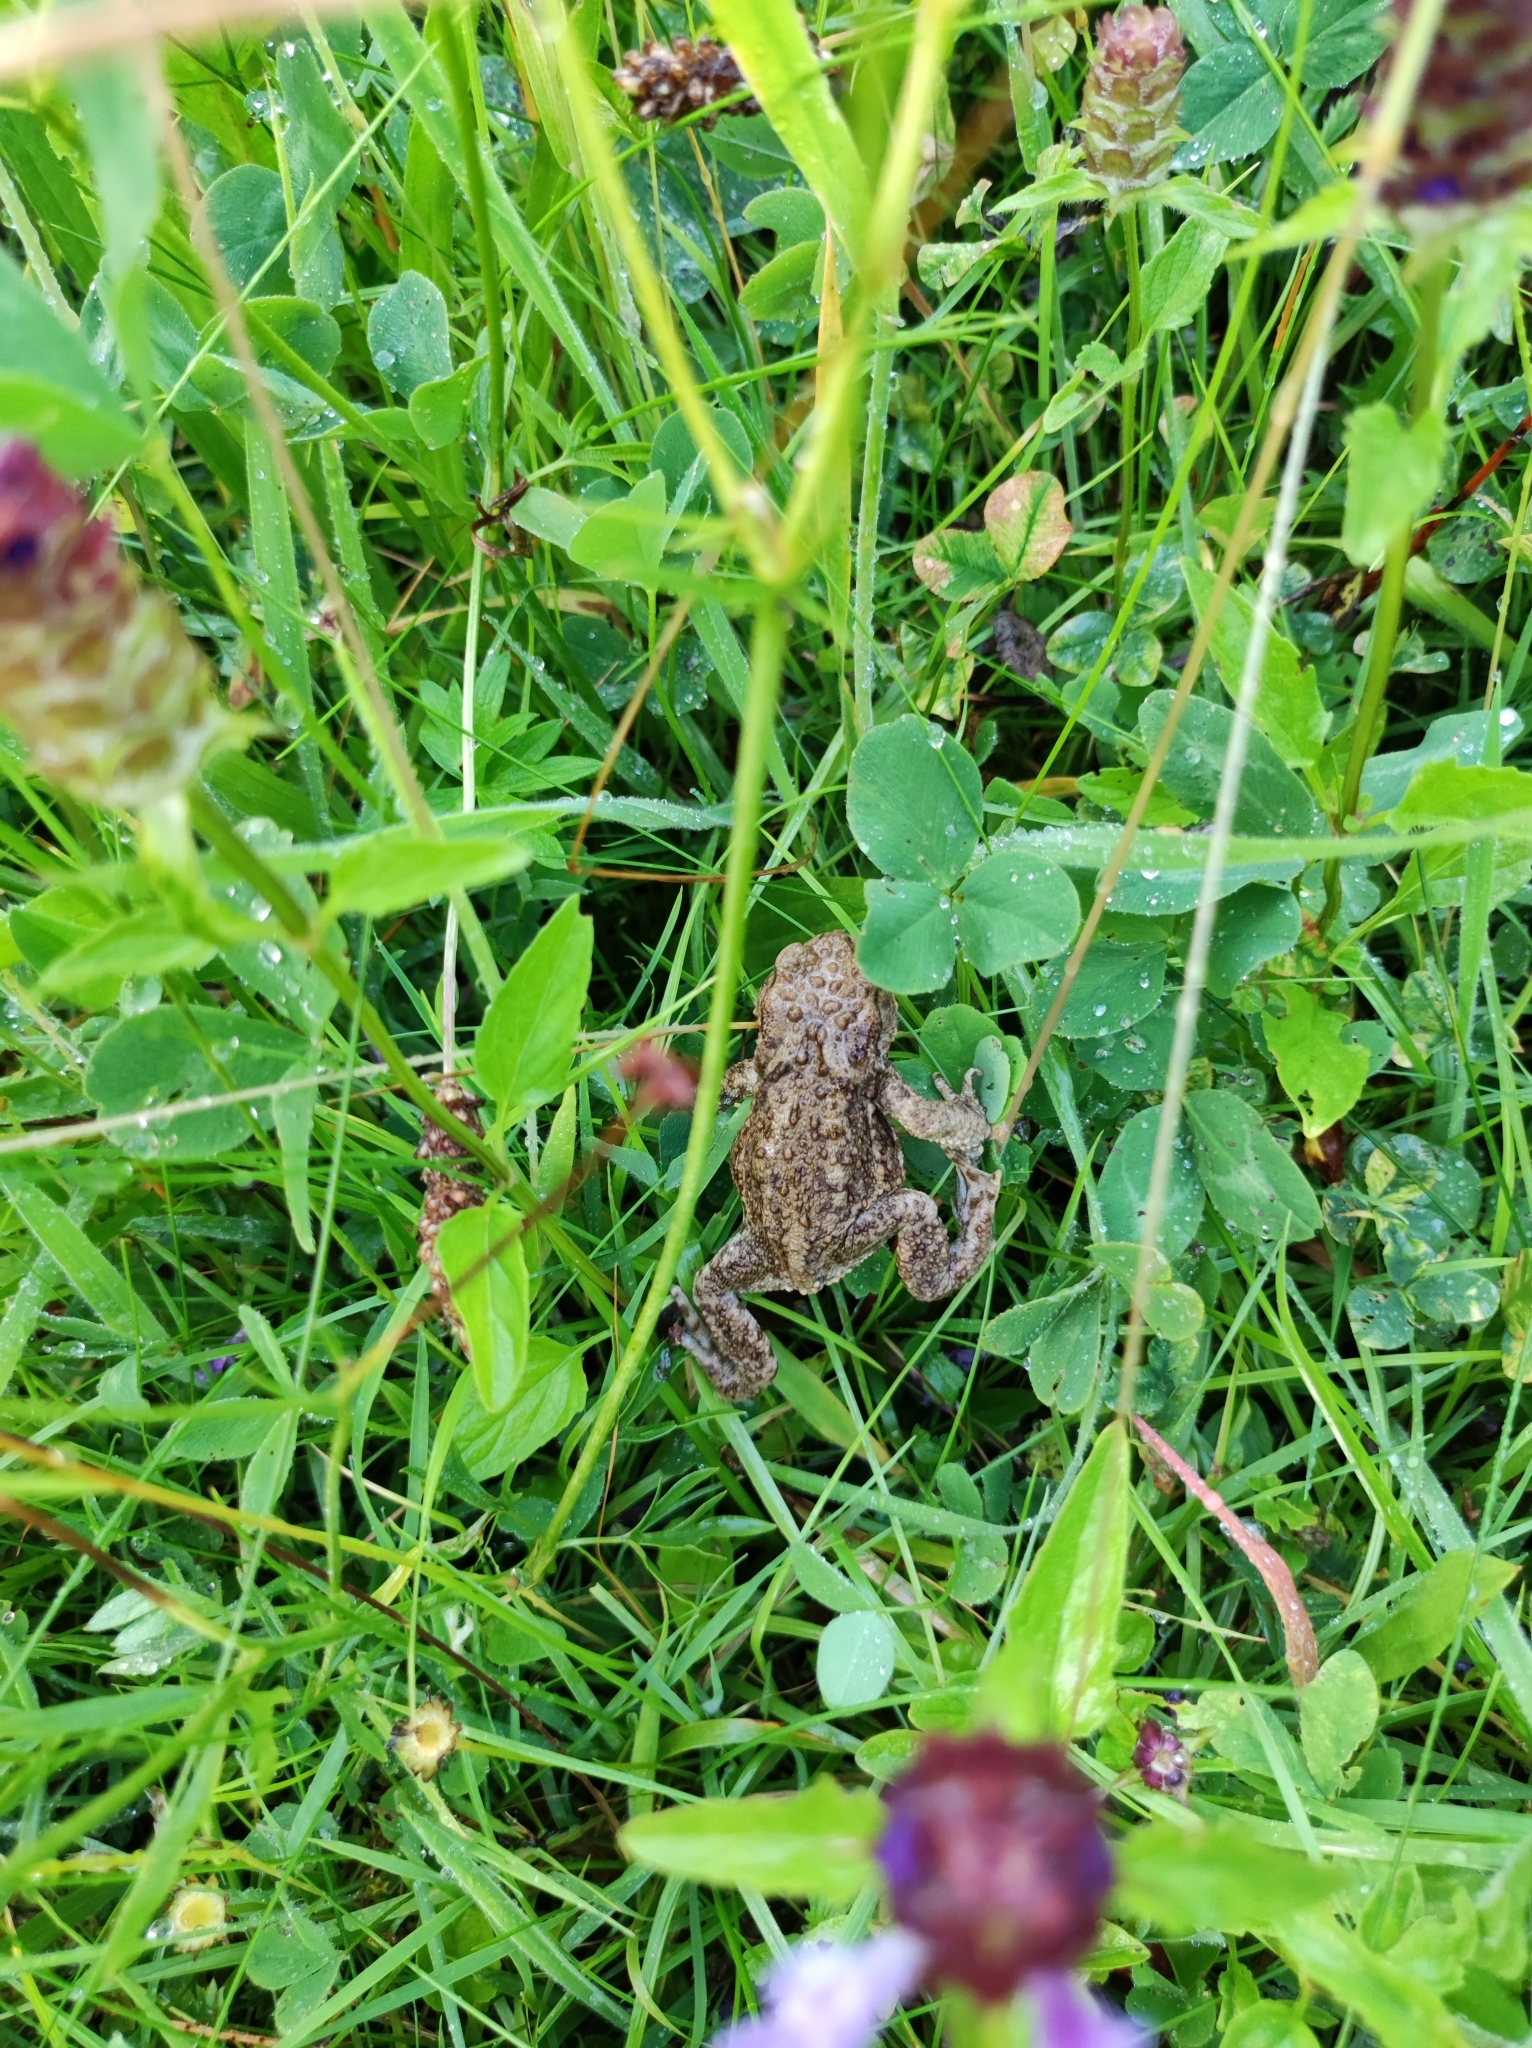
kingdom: Animalia
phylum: Chordata
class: Amphibia
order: Anura
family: Bufonidae
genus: Bufo
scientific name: Bufo bufo
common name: Common toad
